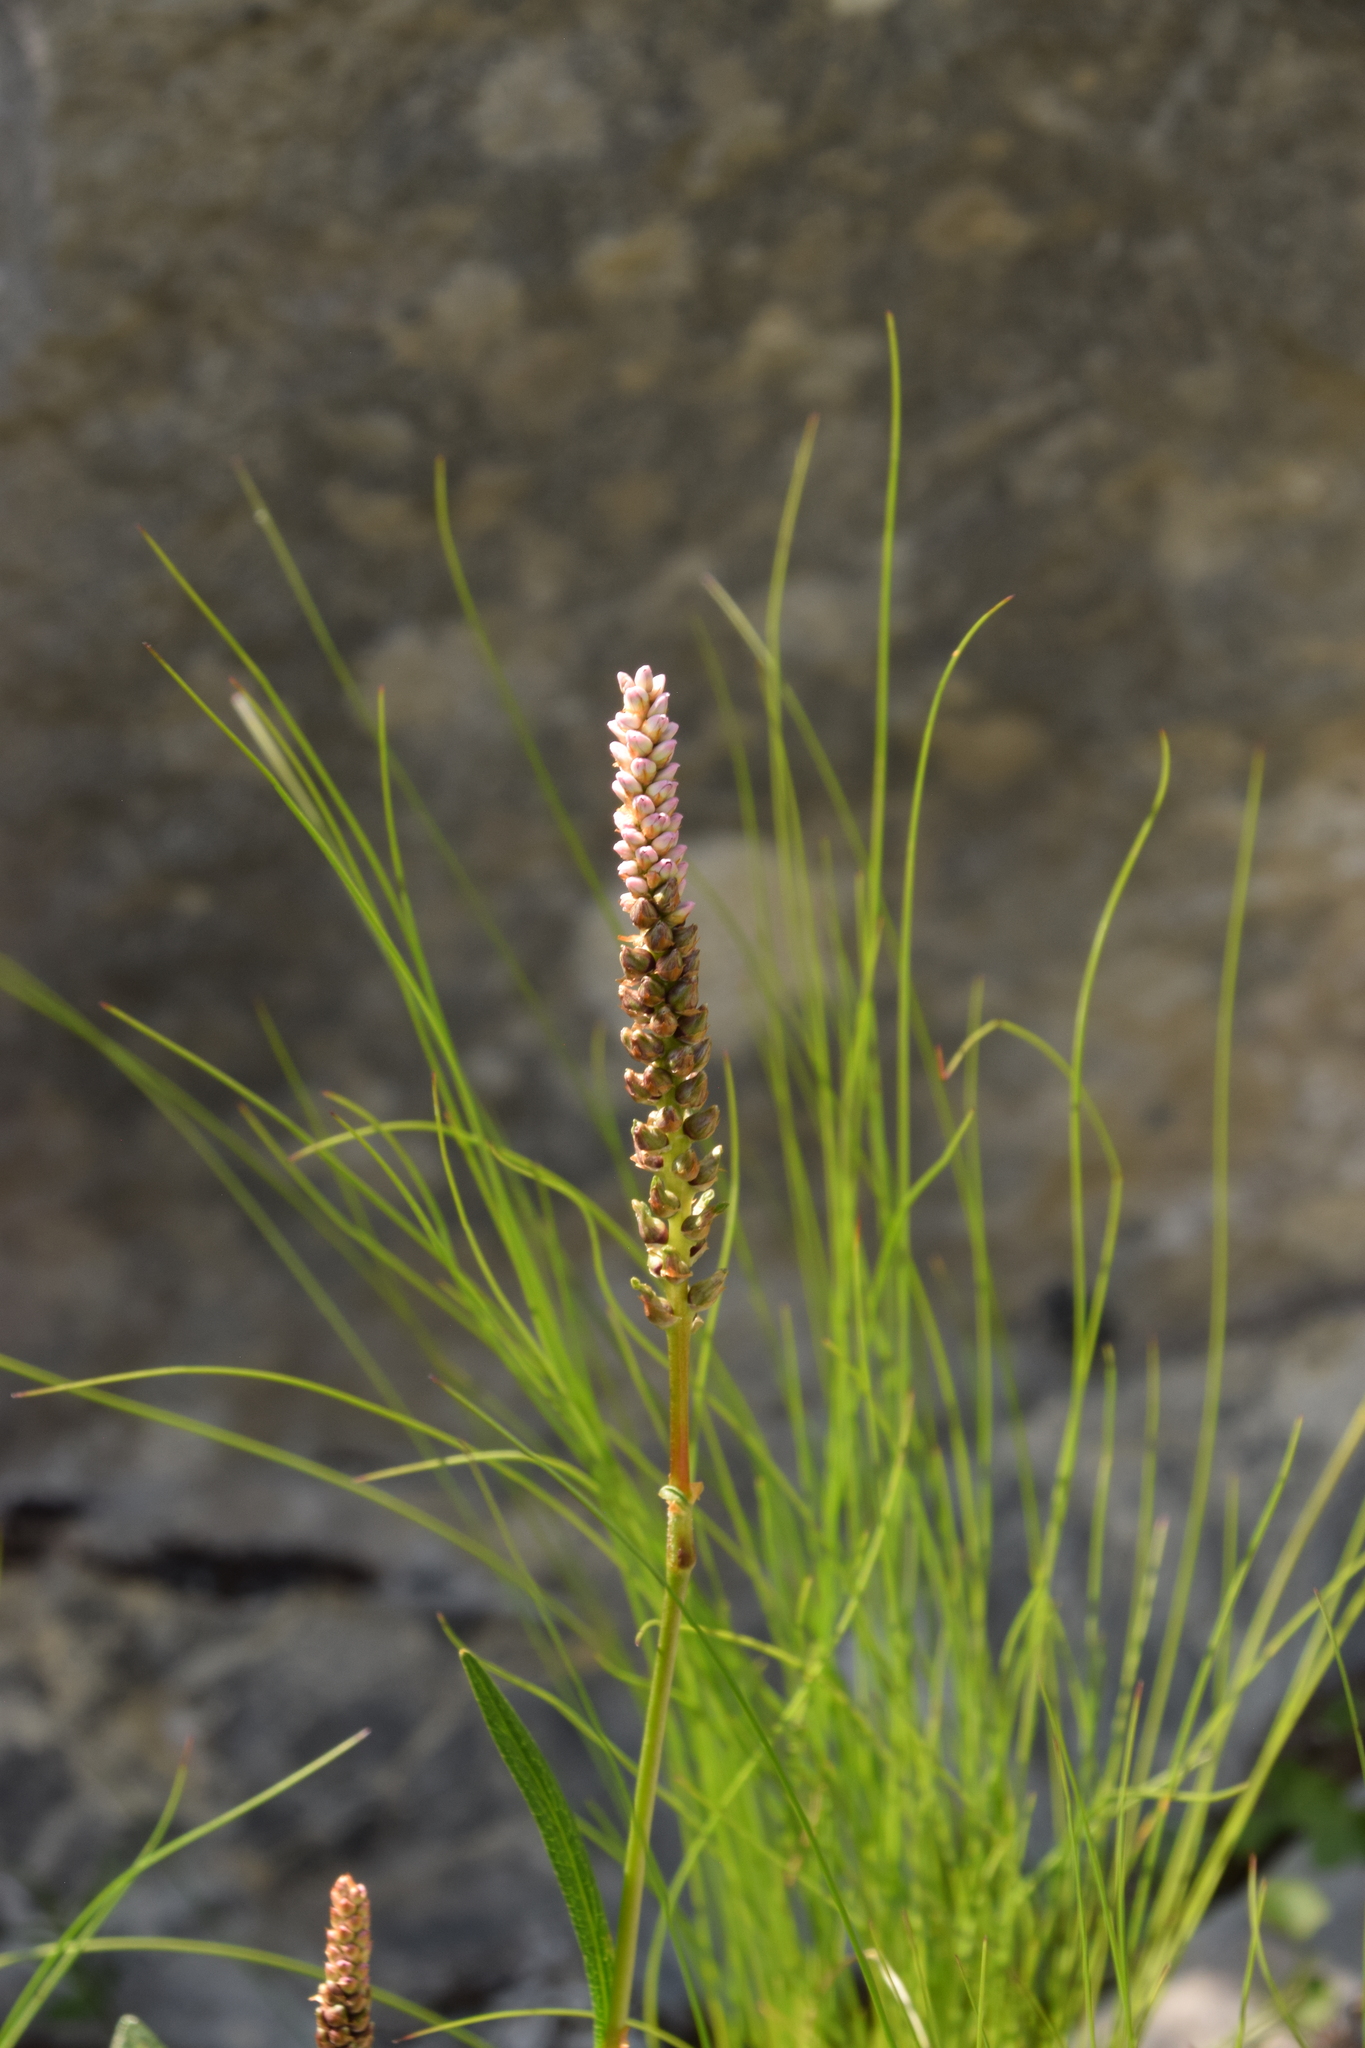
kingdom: Plantae
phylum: Tracheophyta
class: Magnoliopsida
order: Caryophyllales
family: Polygonaceae
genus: Bistorta
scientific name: Bistorta vivipara
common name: Alpine bistort
